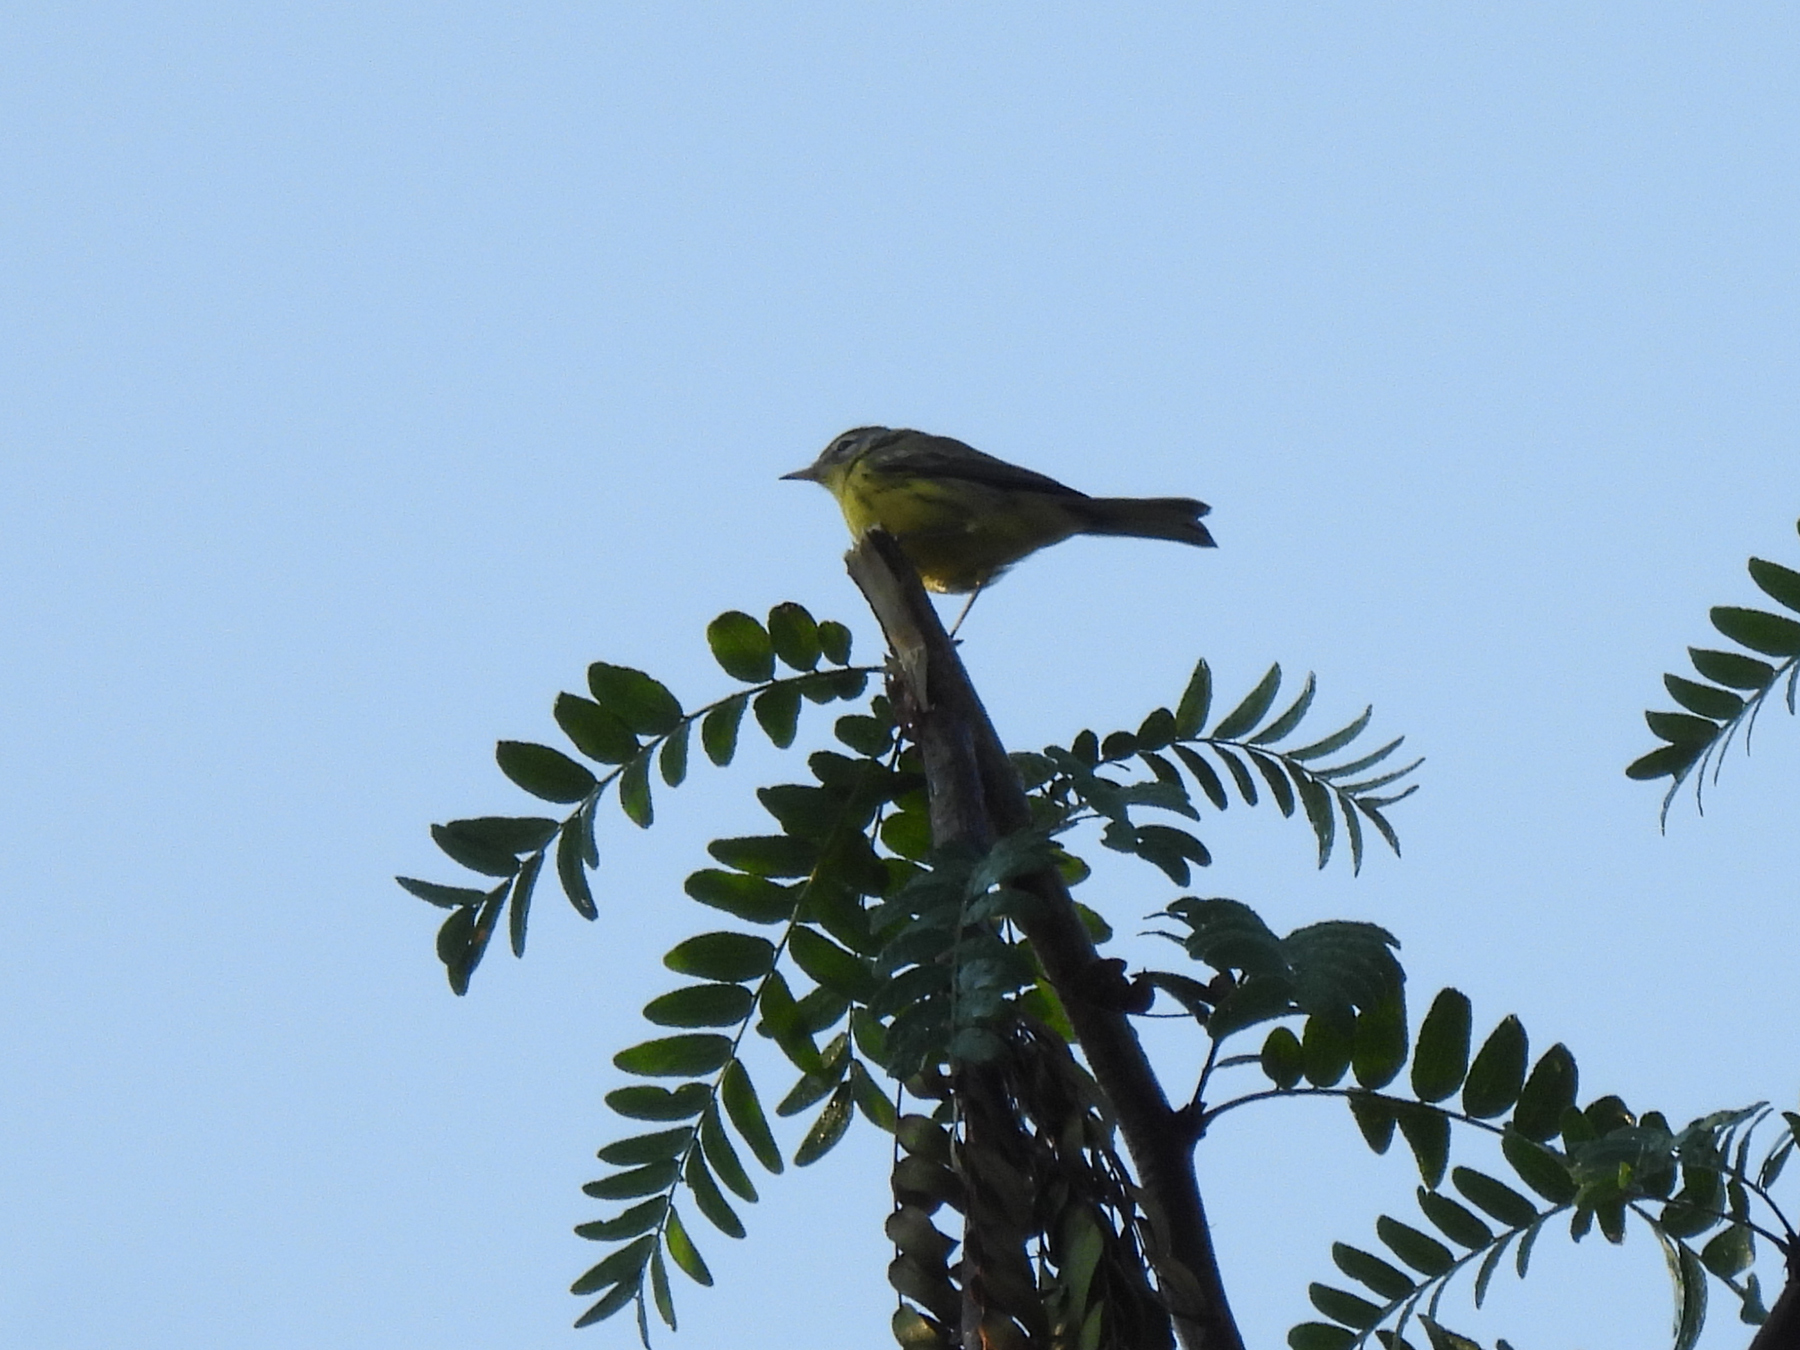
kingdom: Animalia
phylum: Chordata
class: Aves
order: Passeriformes
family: Parulidae
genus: Setophaga
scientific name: Setophaga discolor
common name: Prairie warbler
